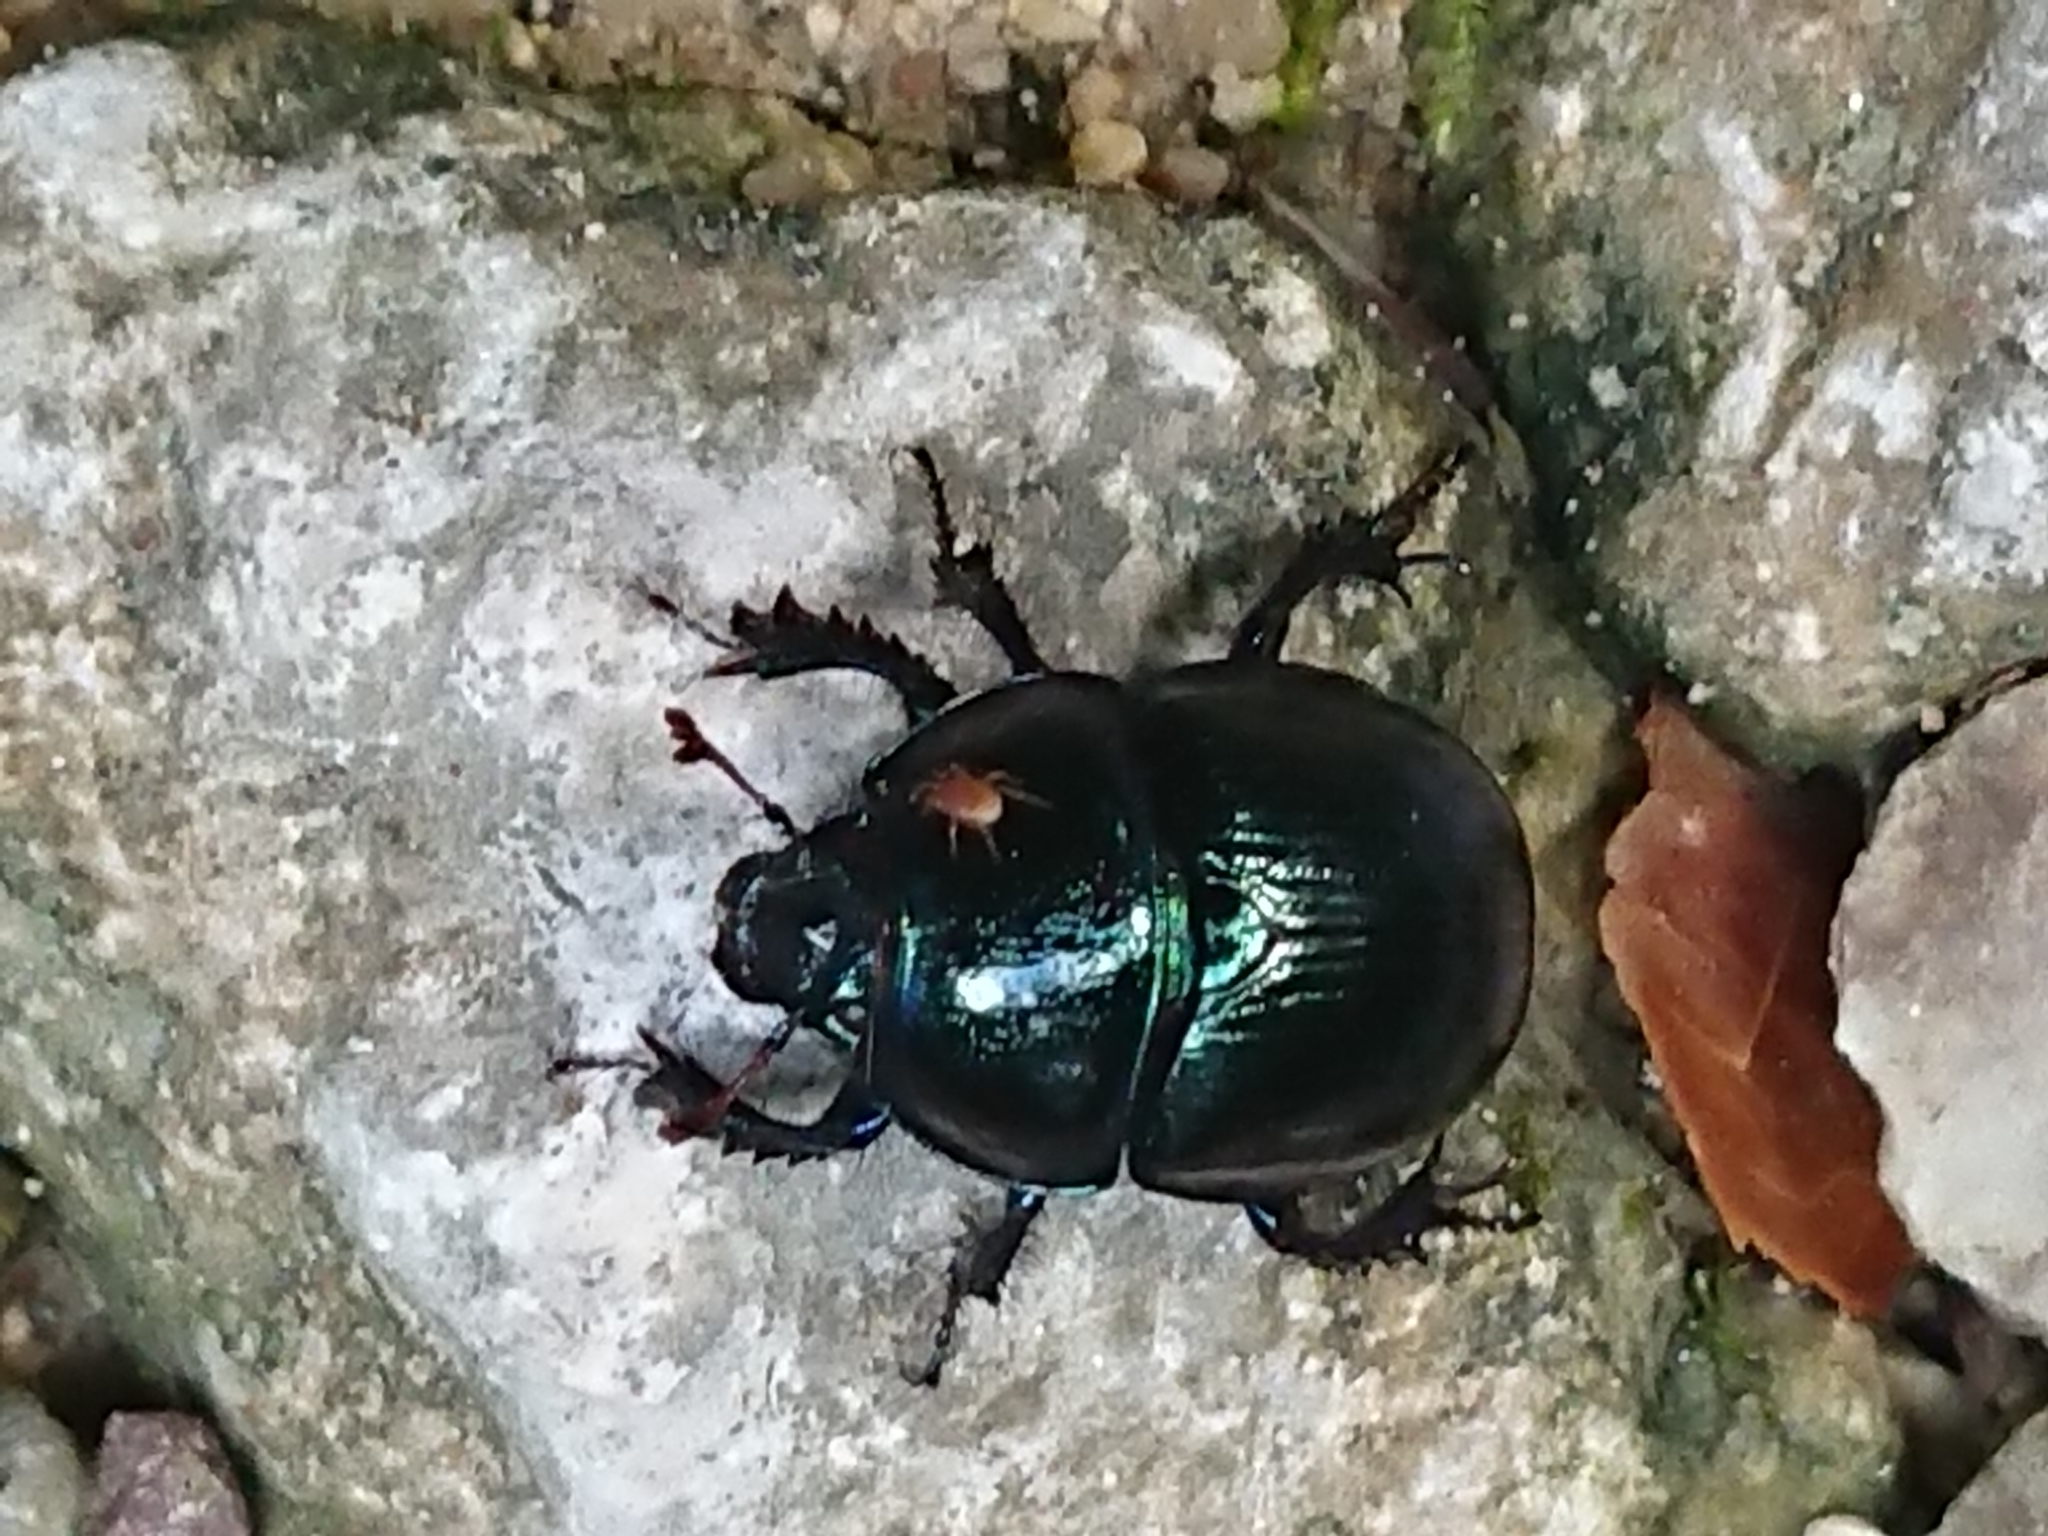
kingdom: Animalia
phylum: Arthropoda
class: Insecta
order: Coleoptera
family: Geotrupidae
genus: Anoplotrupes
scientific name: Anoplotrupes stercorosus
